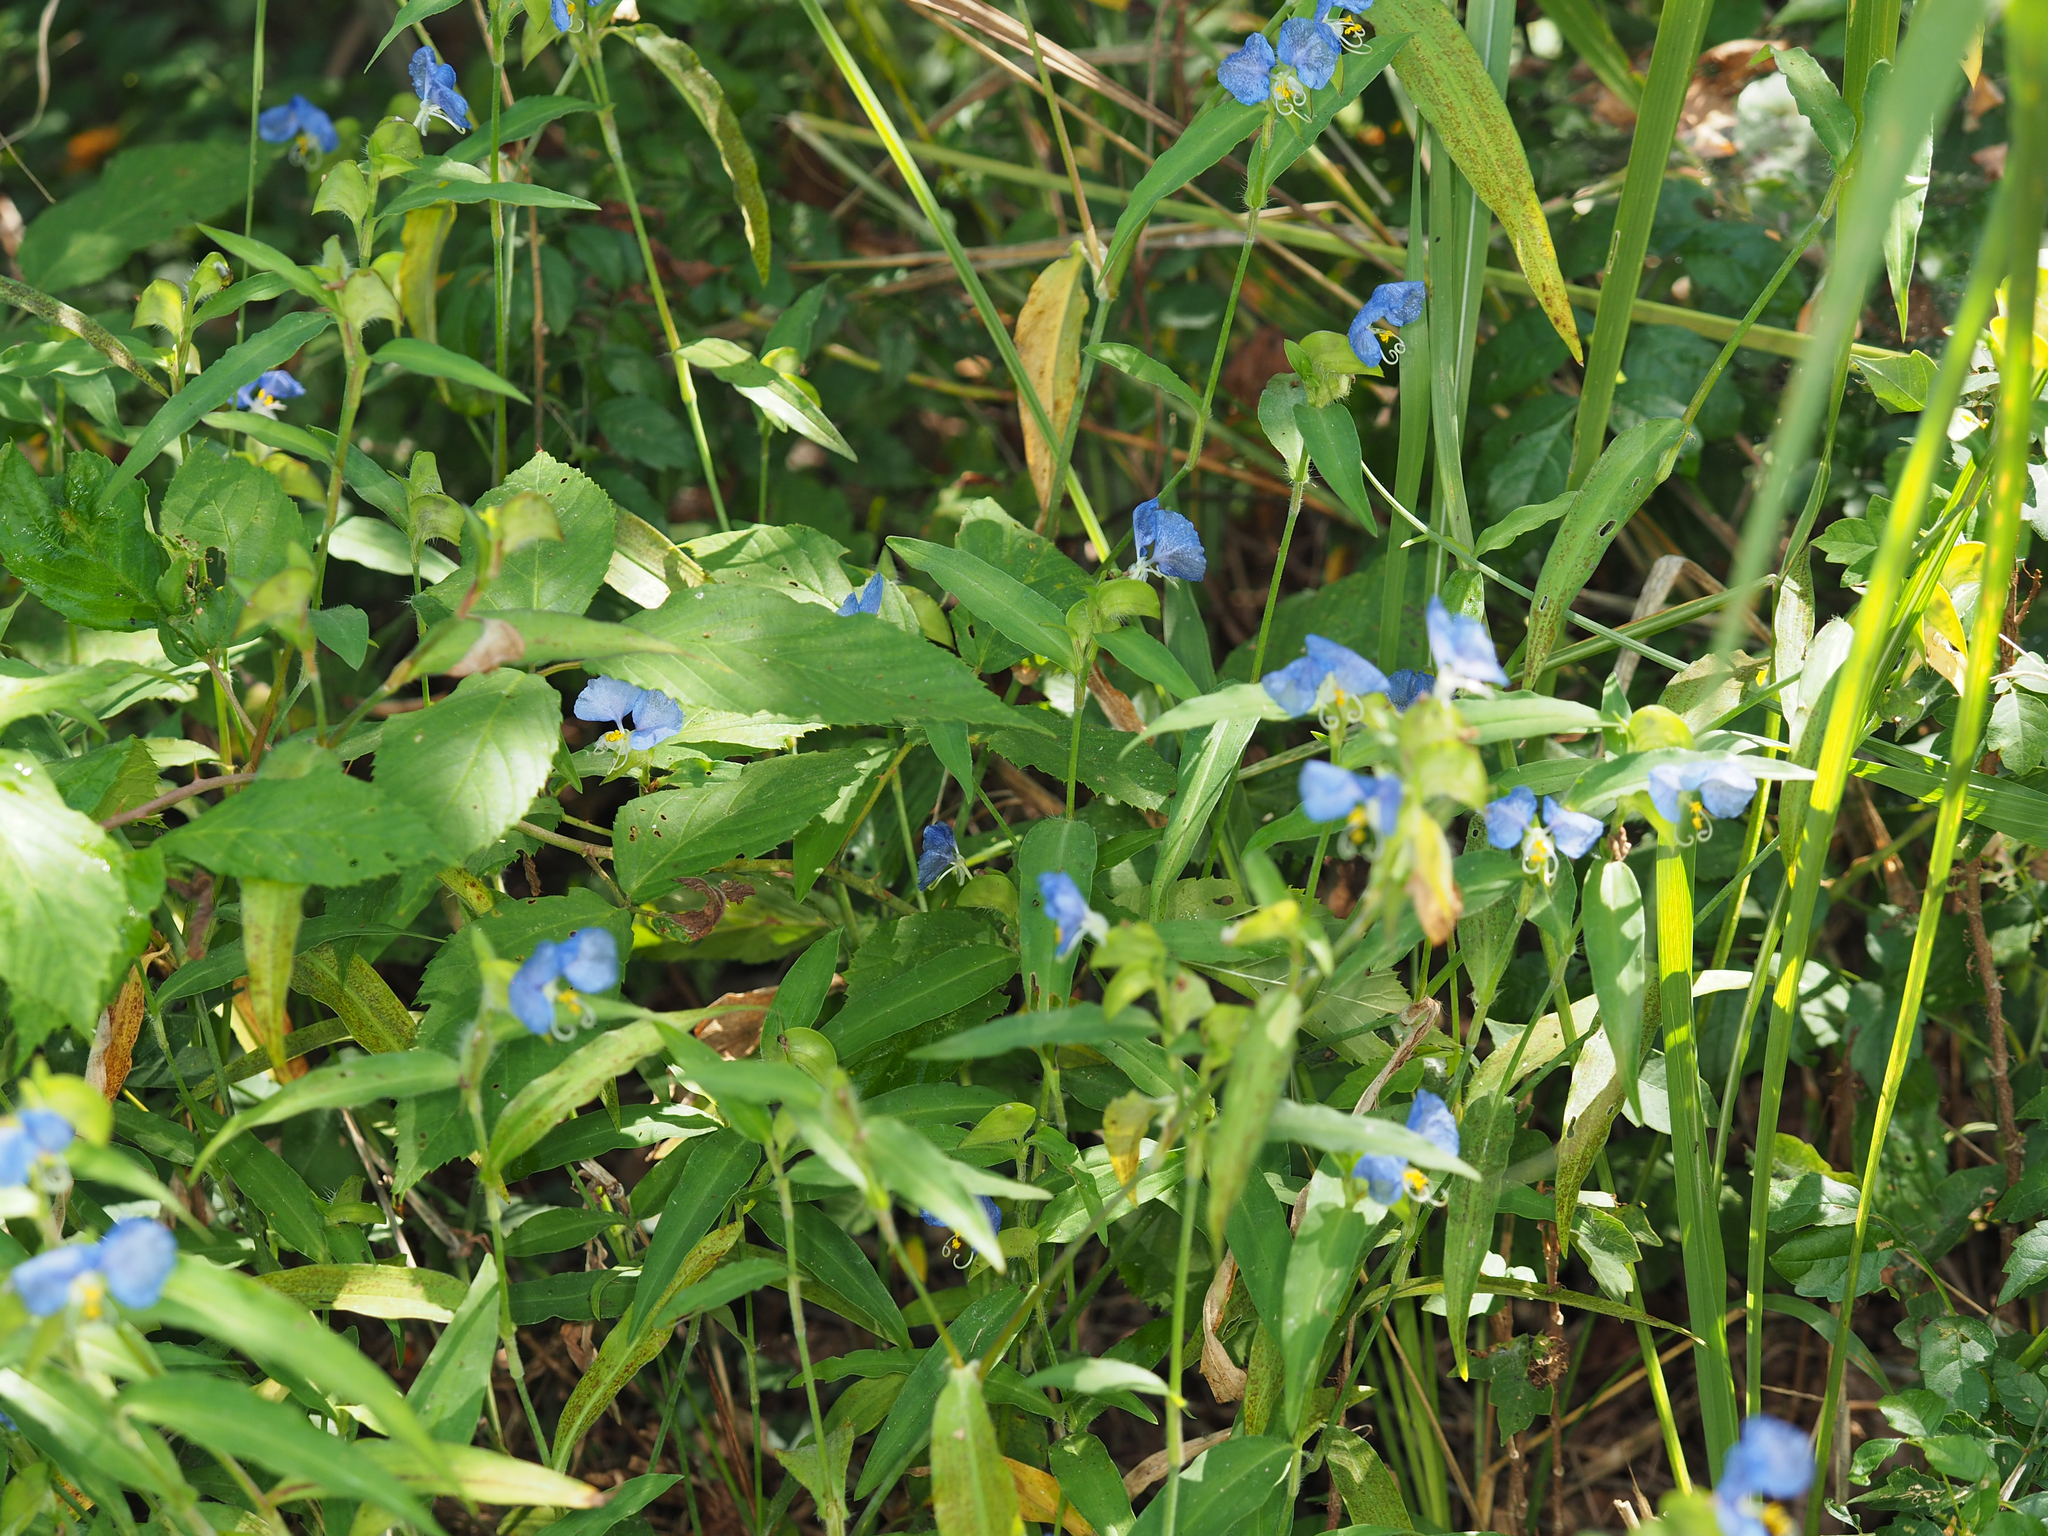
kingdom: Plantae
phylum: Tracheophyta
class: Liliopsida
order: Commelinales
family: Commelinaceae
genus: Commelina
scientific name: Commelina erecta
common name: Blousel blommetjie
